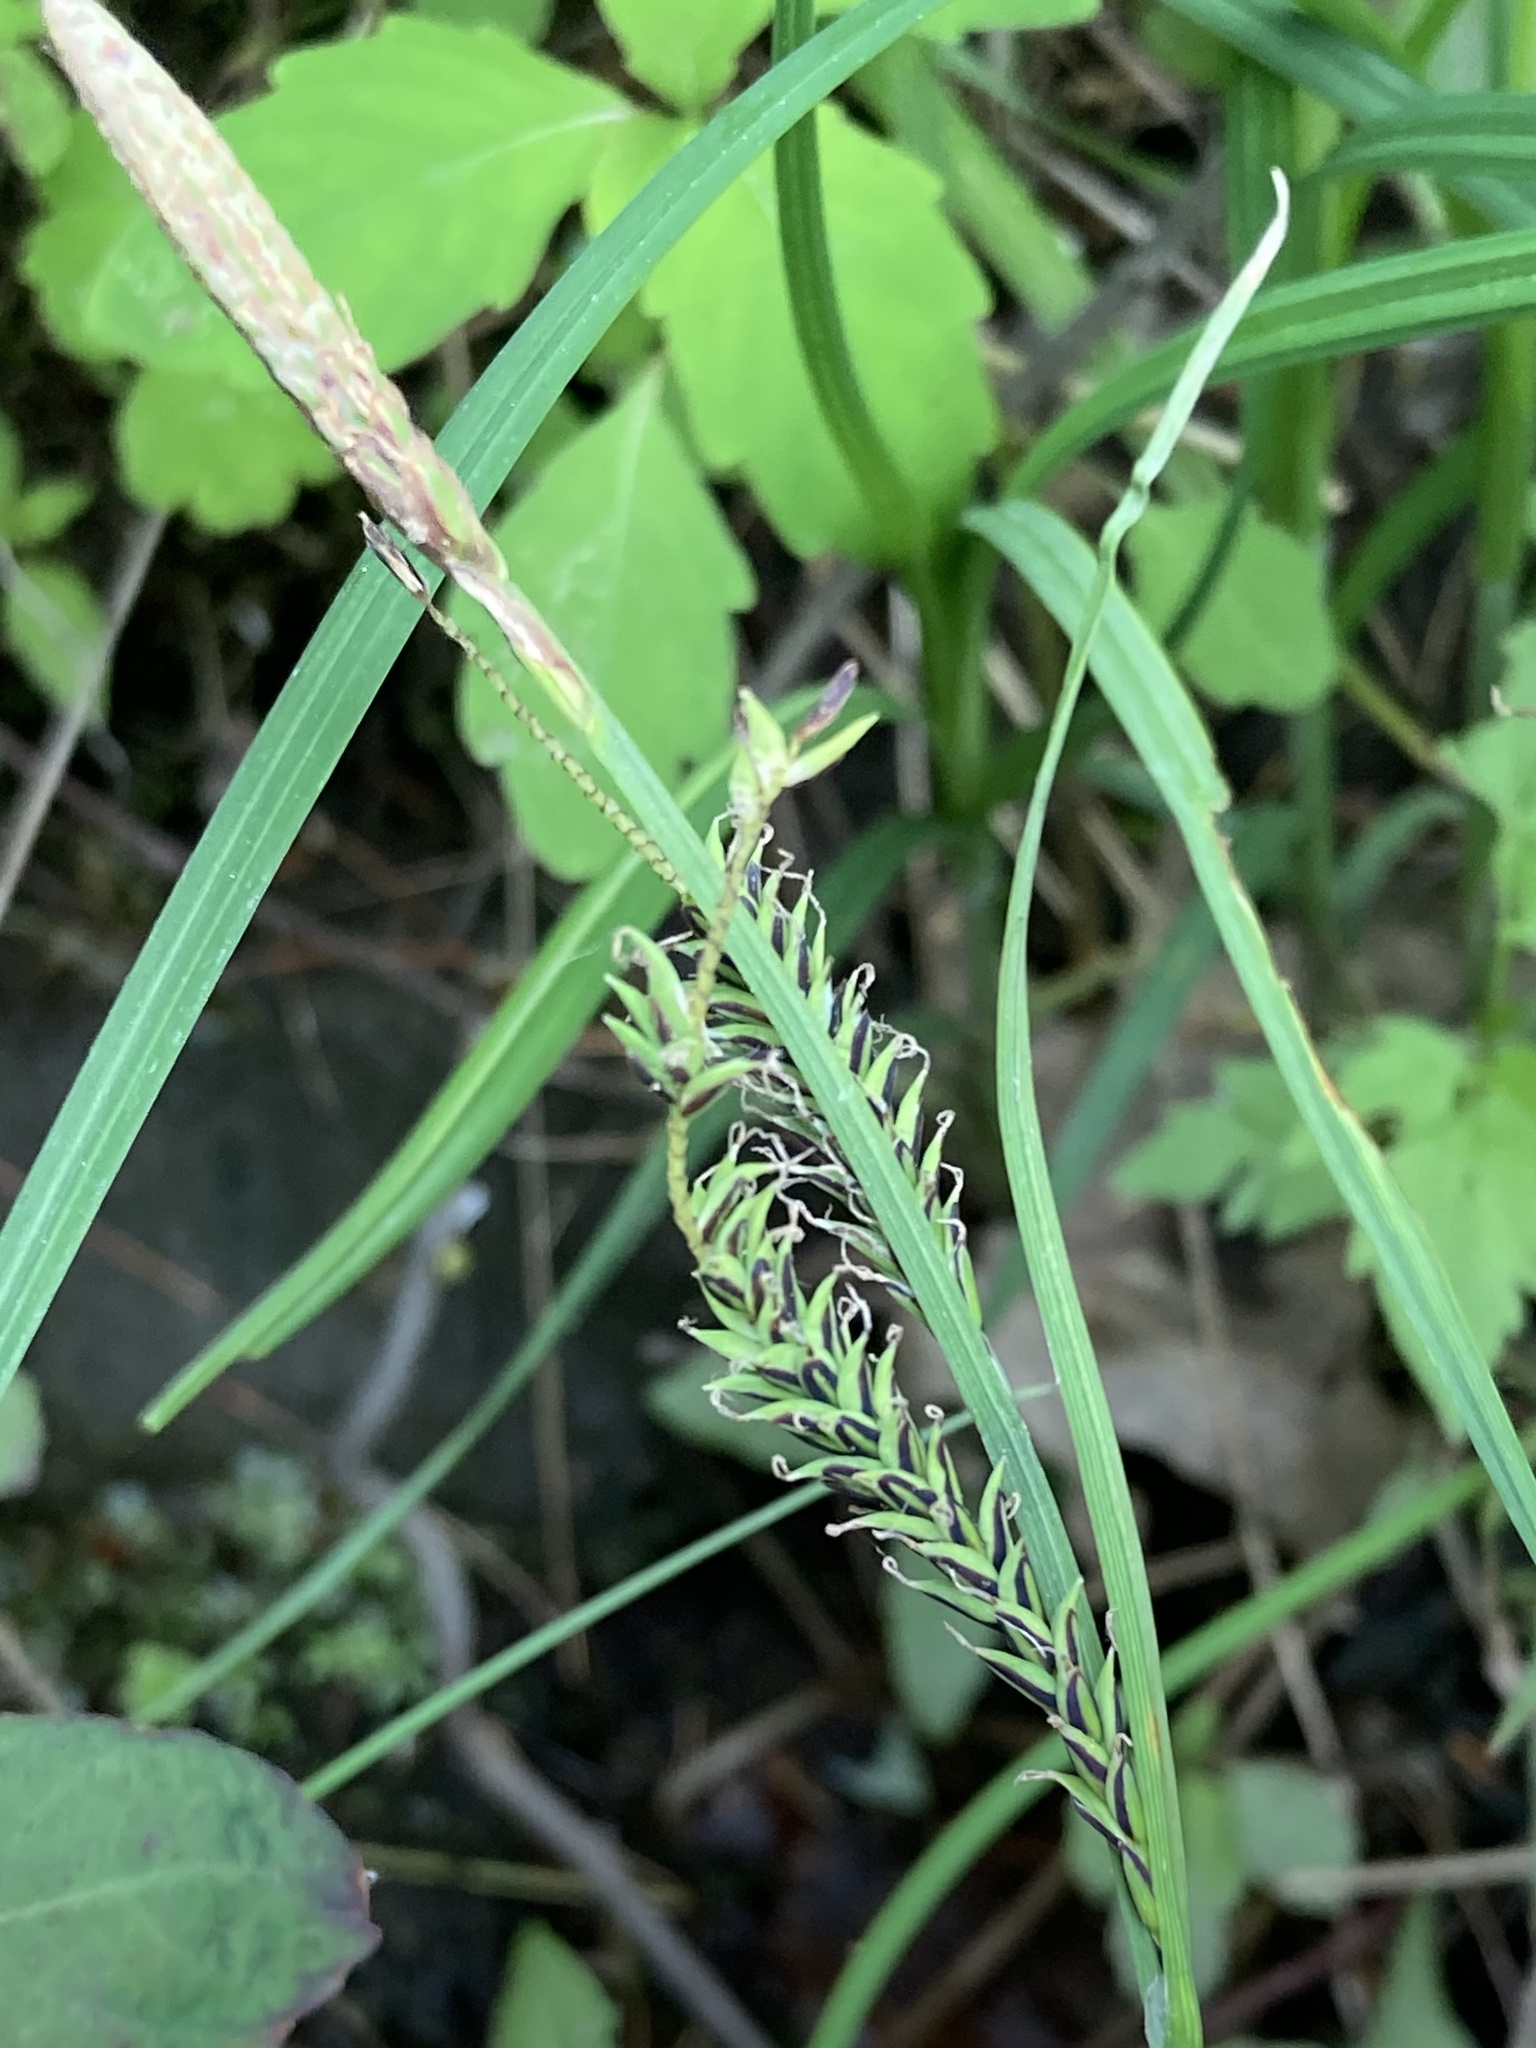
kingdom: Plantae
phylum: Tracheophyta
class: Liliopsida
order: Poales
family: Cyperaceae
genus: Carex
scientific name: Carex torta
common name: Twisted sedge
